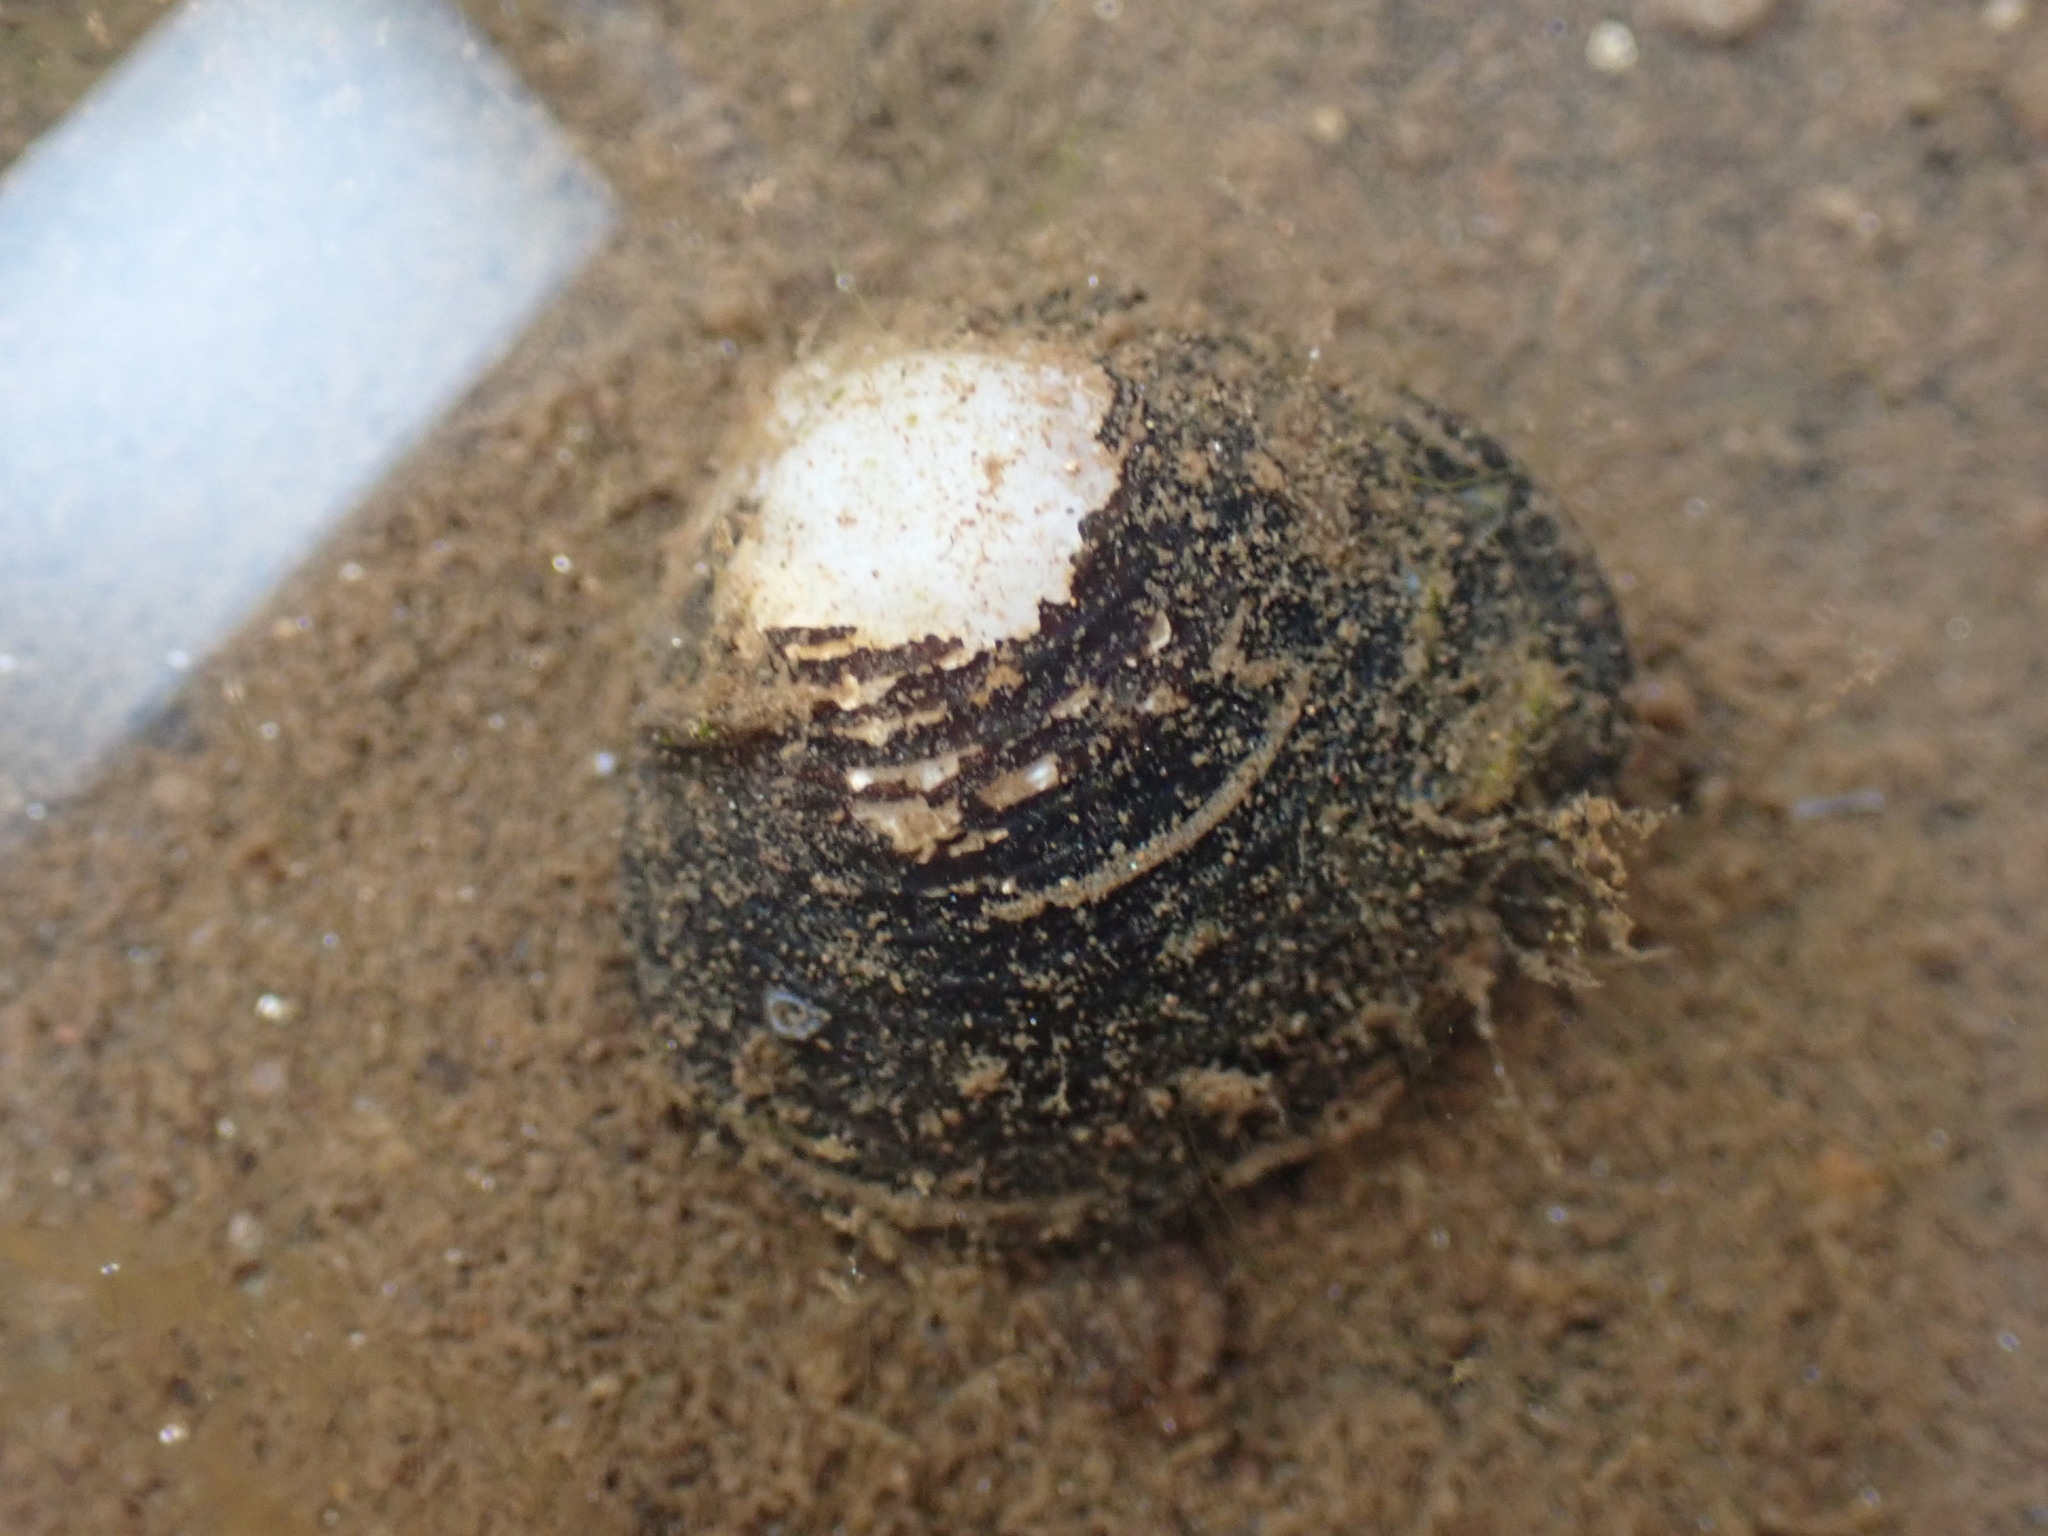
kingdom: Animalia
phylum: Mollusca
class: Bivalvia
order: Venerida
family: Cyrenidae
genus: Corbicula
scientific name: Corbicula fluminea
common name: Asian clam
